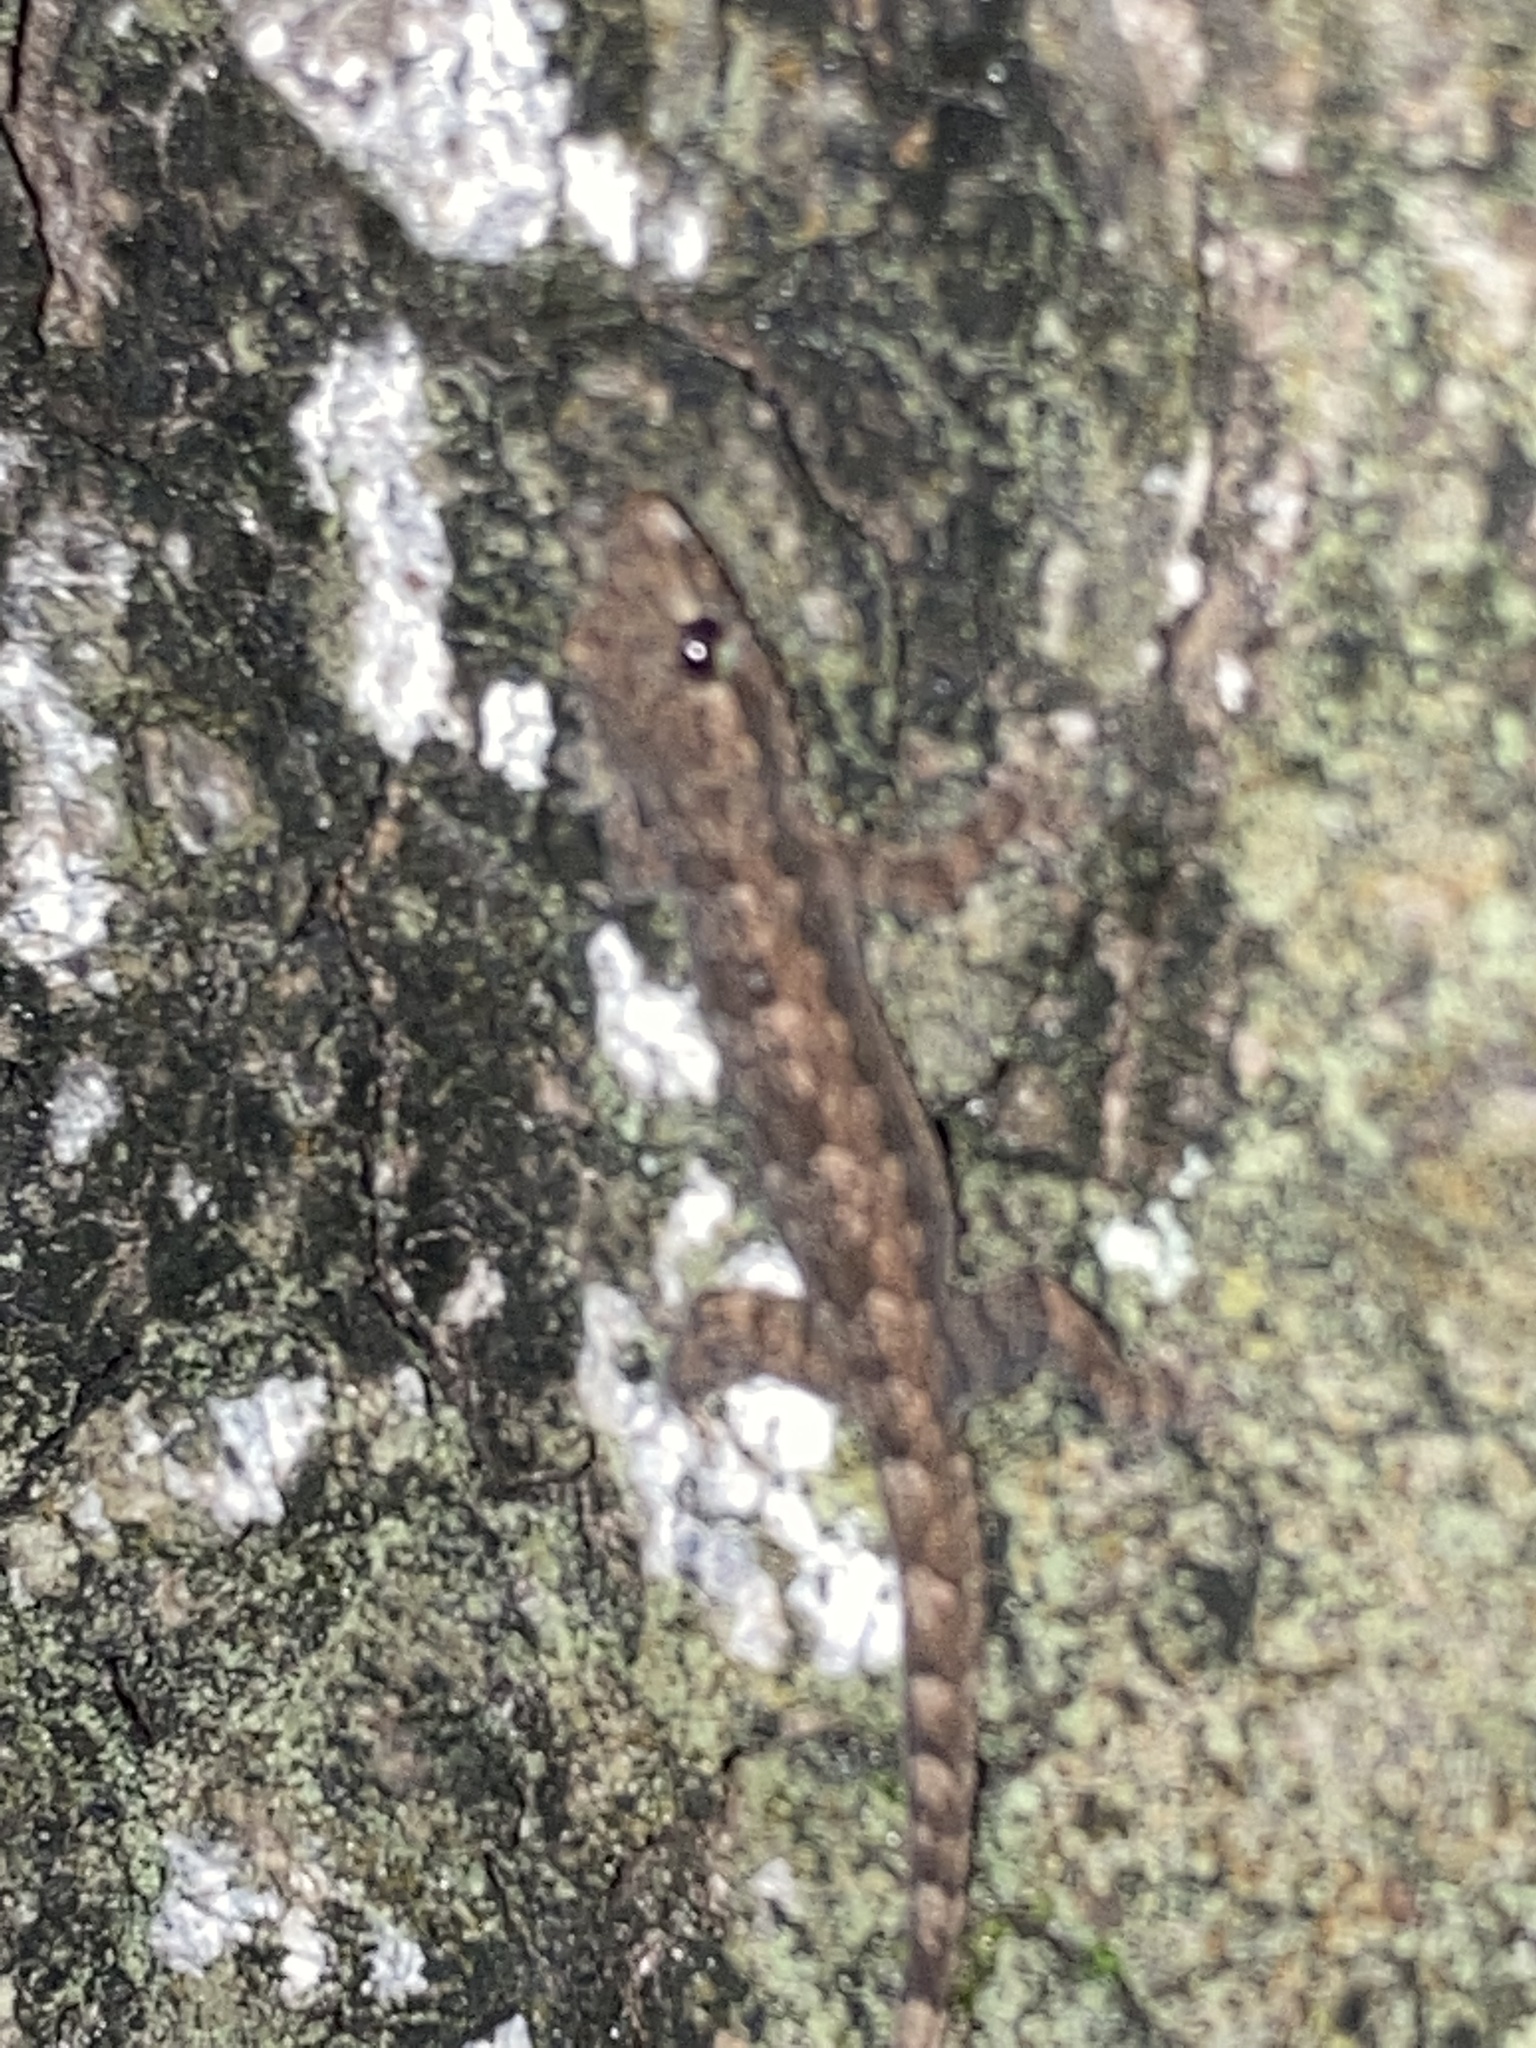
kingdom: Animalia
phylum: Chordata
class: Squamata
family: Gekkonidae
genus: Hemidactylus
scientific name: Hemidactylus platyurus
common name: Flat-tailed house gecko
